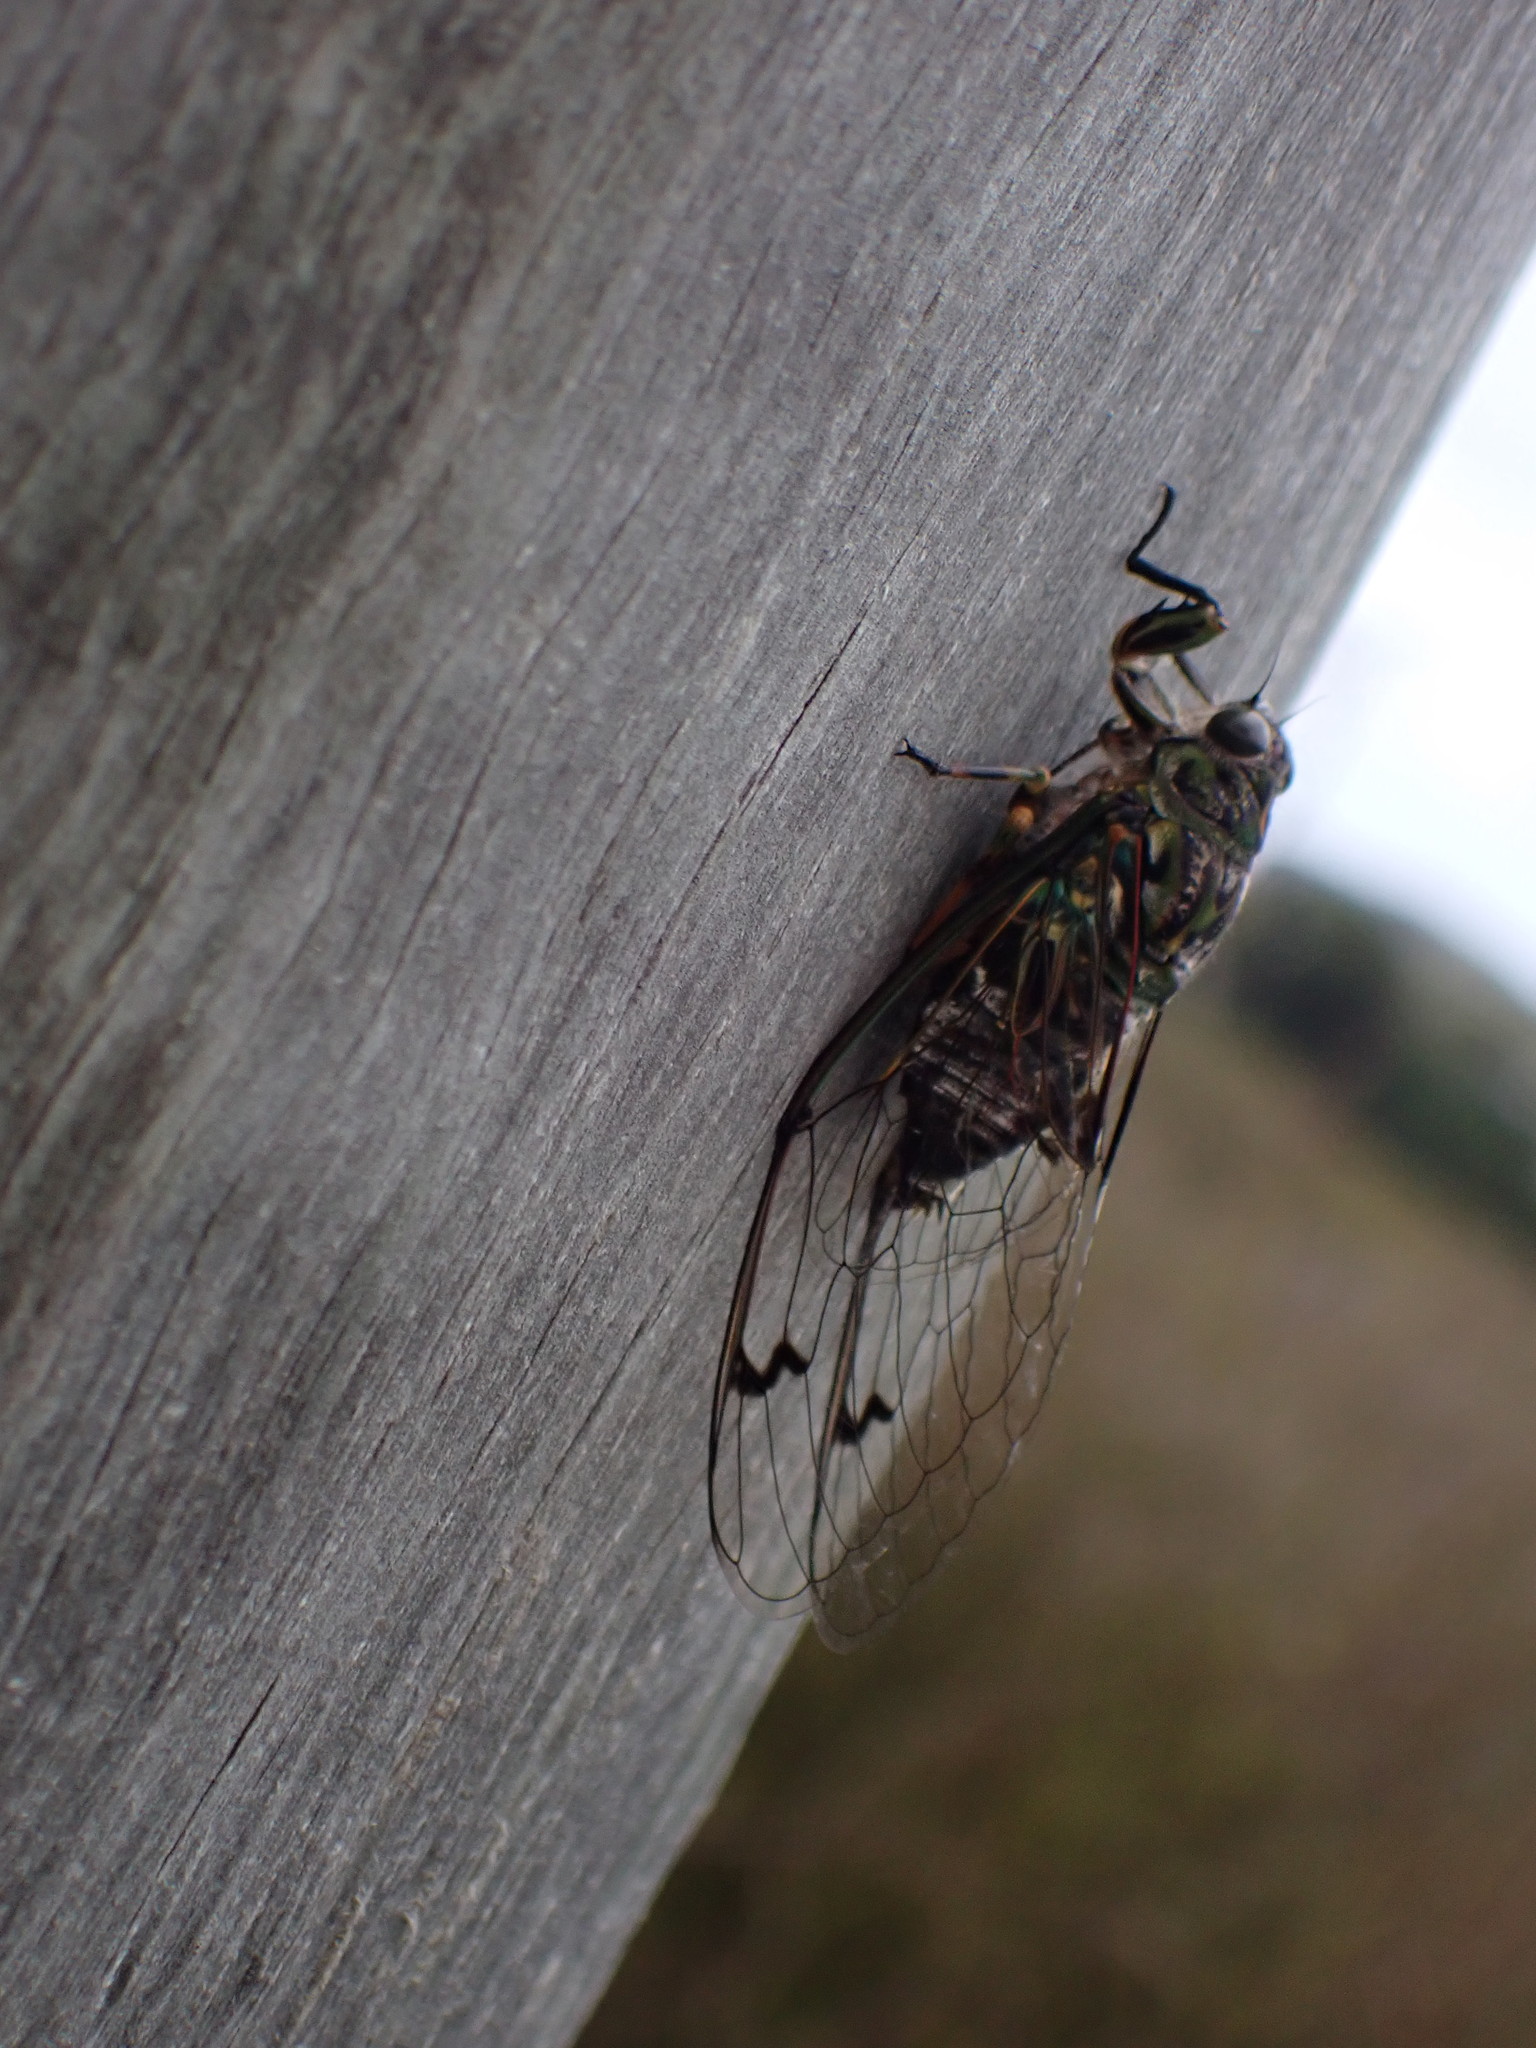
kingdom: Animalia
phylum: Arthropoda
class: Insecta
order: Hemiptera
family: Cicadidae
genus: Amphipsalta
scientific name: Amphipsalta zelandica
